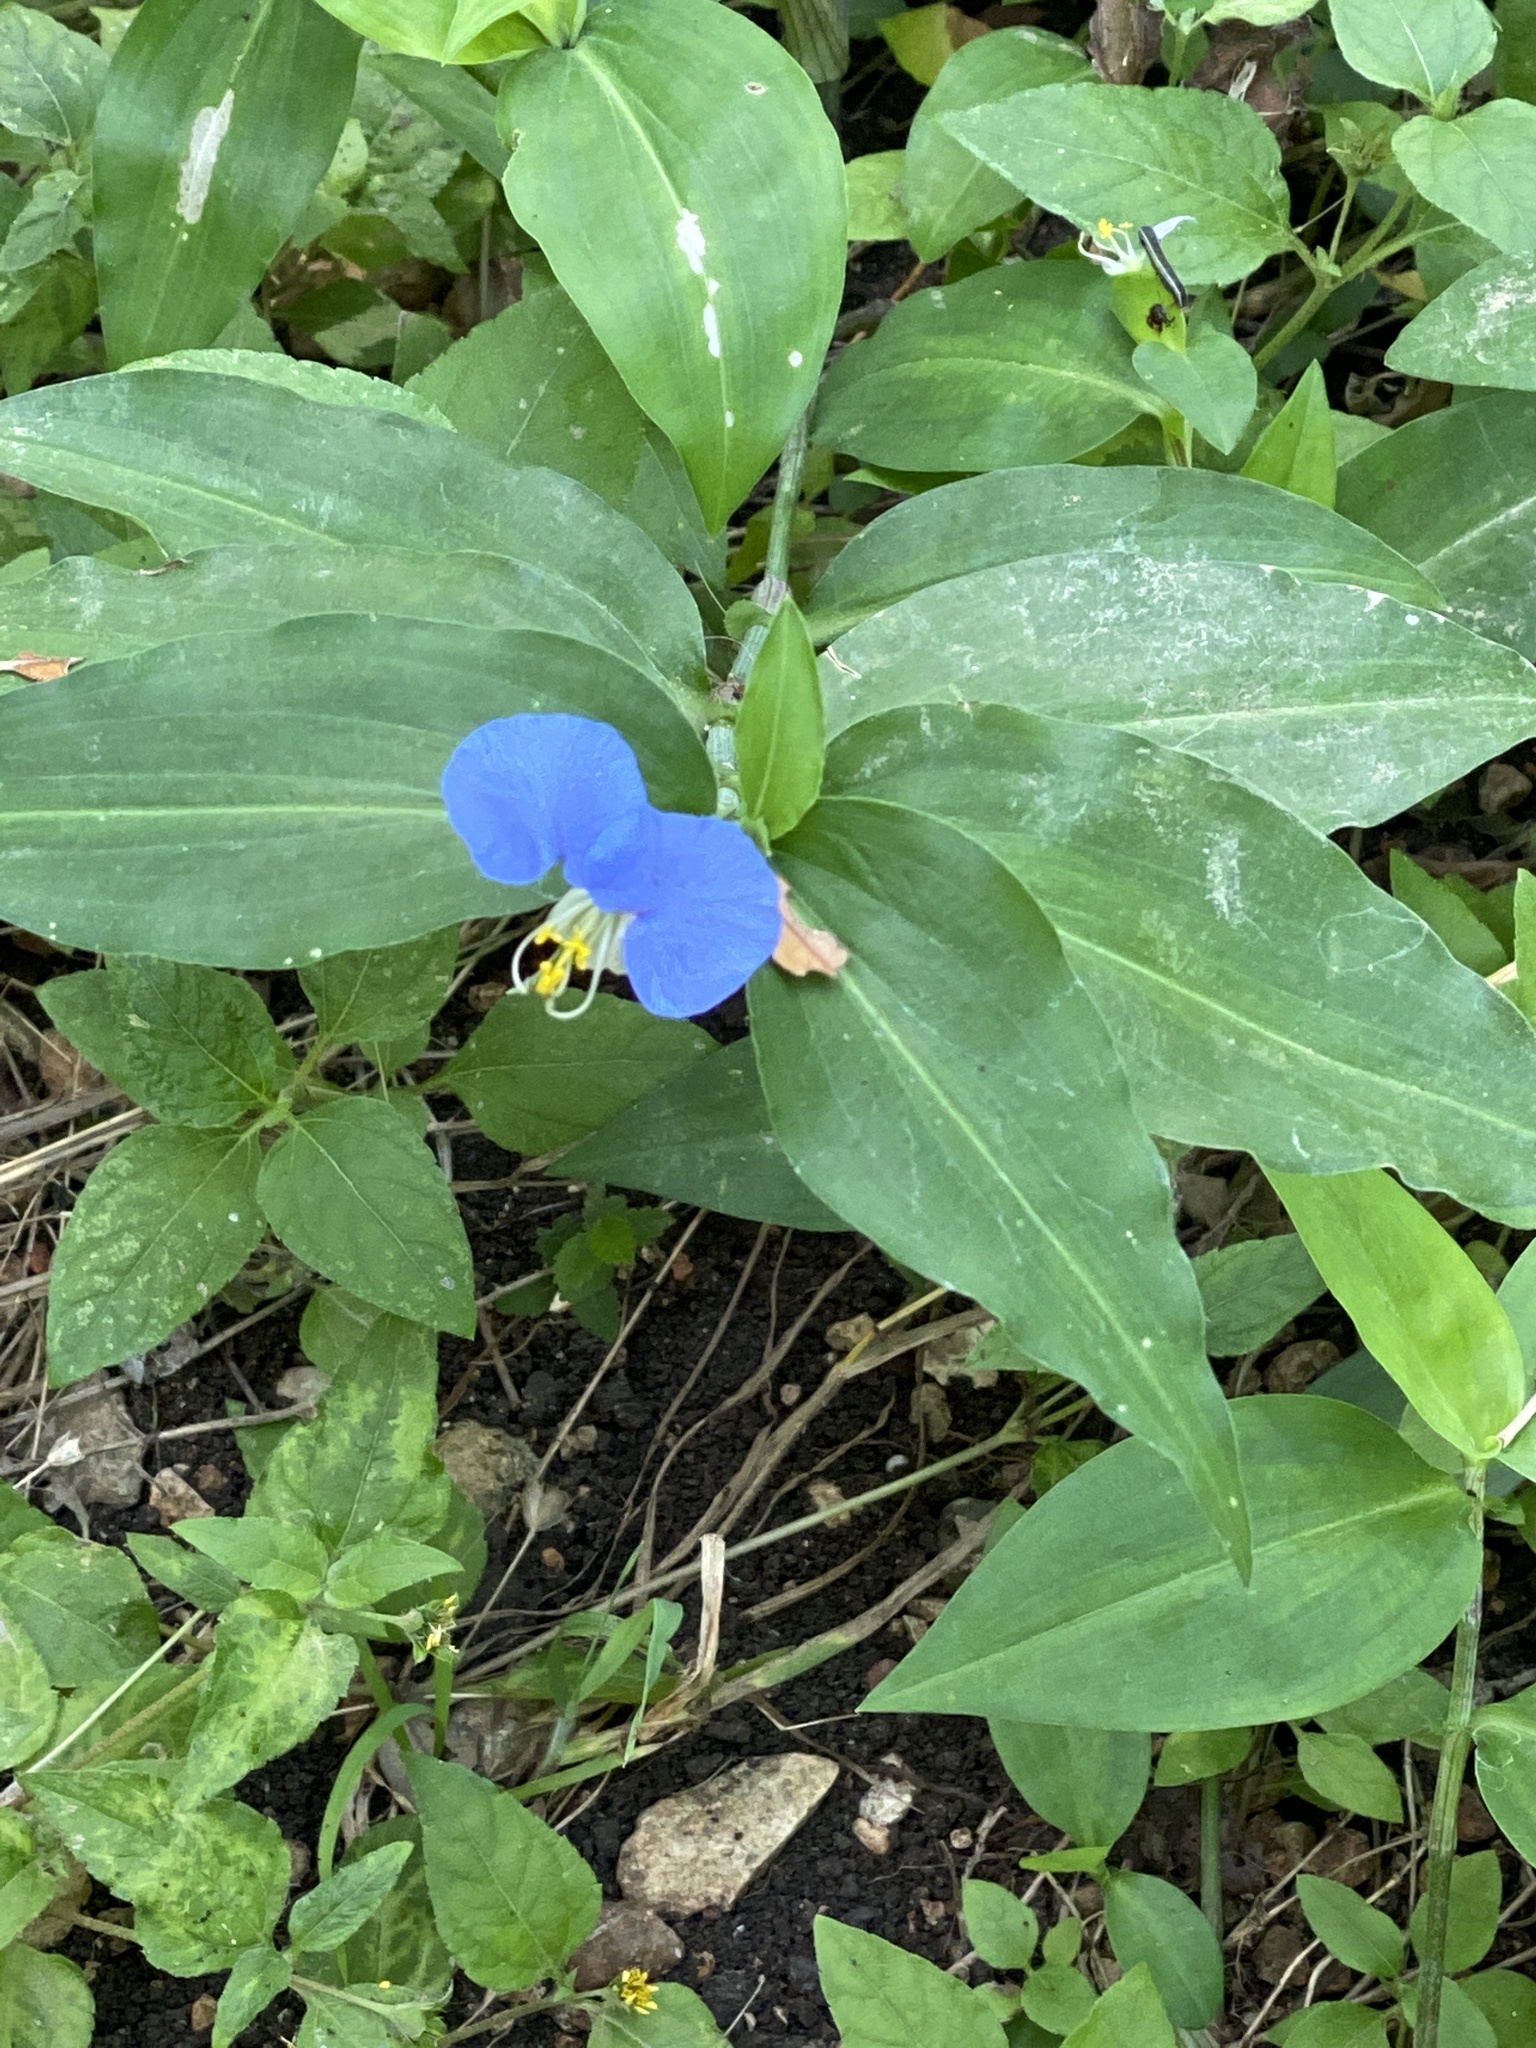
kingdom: Plantae
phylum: Tracheophyta
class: Liliopsida
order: Commelinales
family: Commelinaceae
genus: Commelina
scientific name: Commelina erecta
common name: Blousel blommetjie
